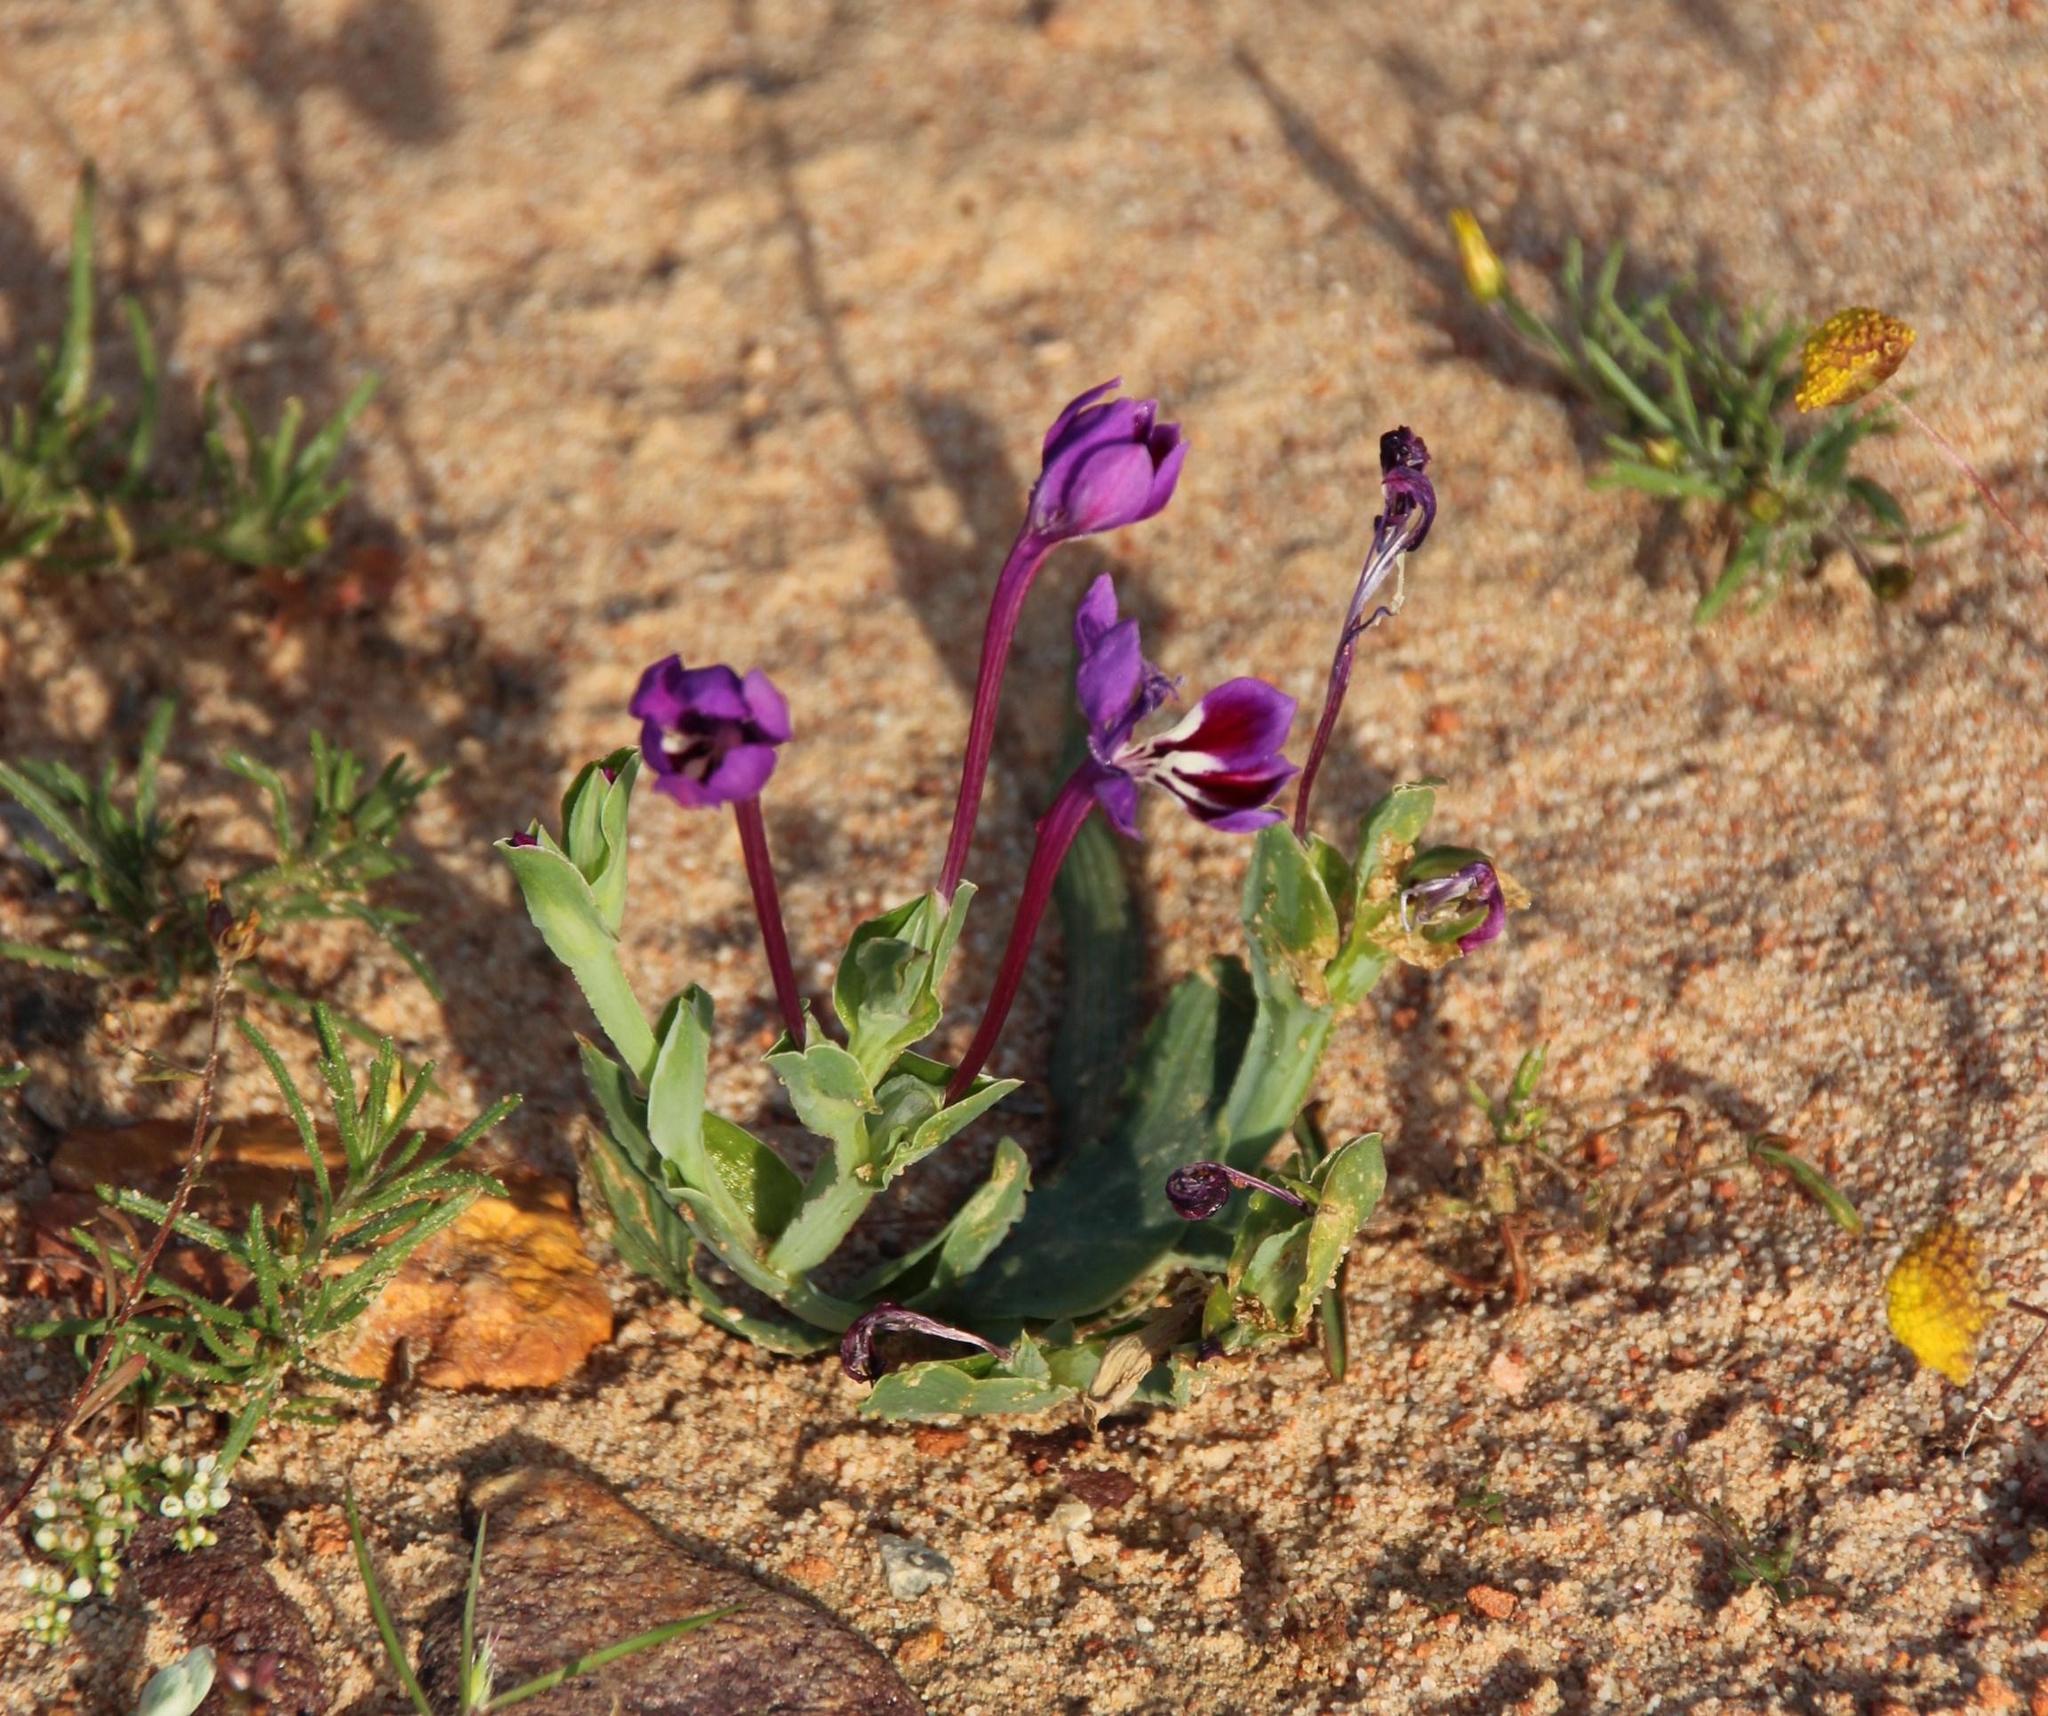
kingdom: Plantae
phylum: Tracheophyta
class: Liliopsida
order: Asparagales
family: Iridaceae
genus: Lapeirousia
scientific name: Lapeirousia jacquinii
